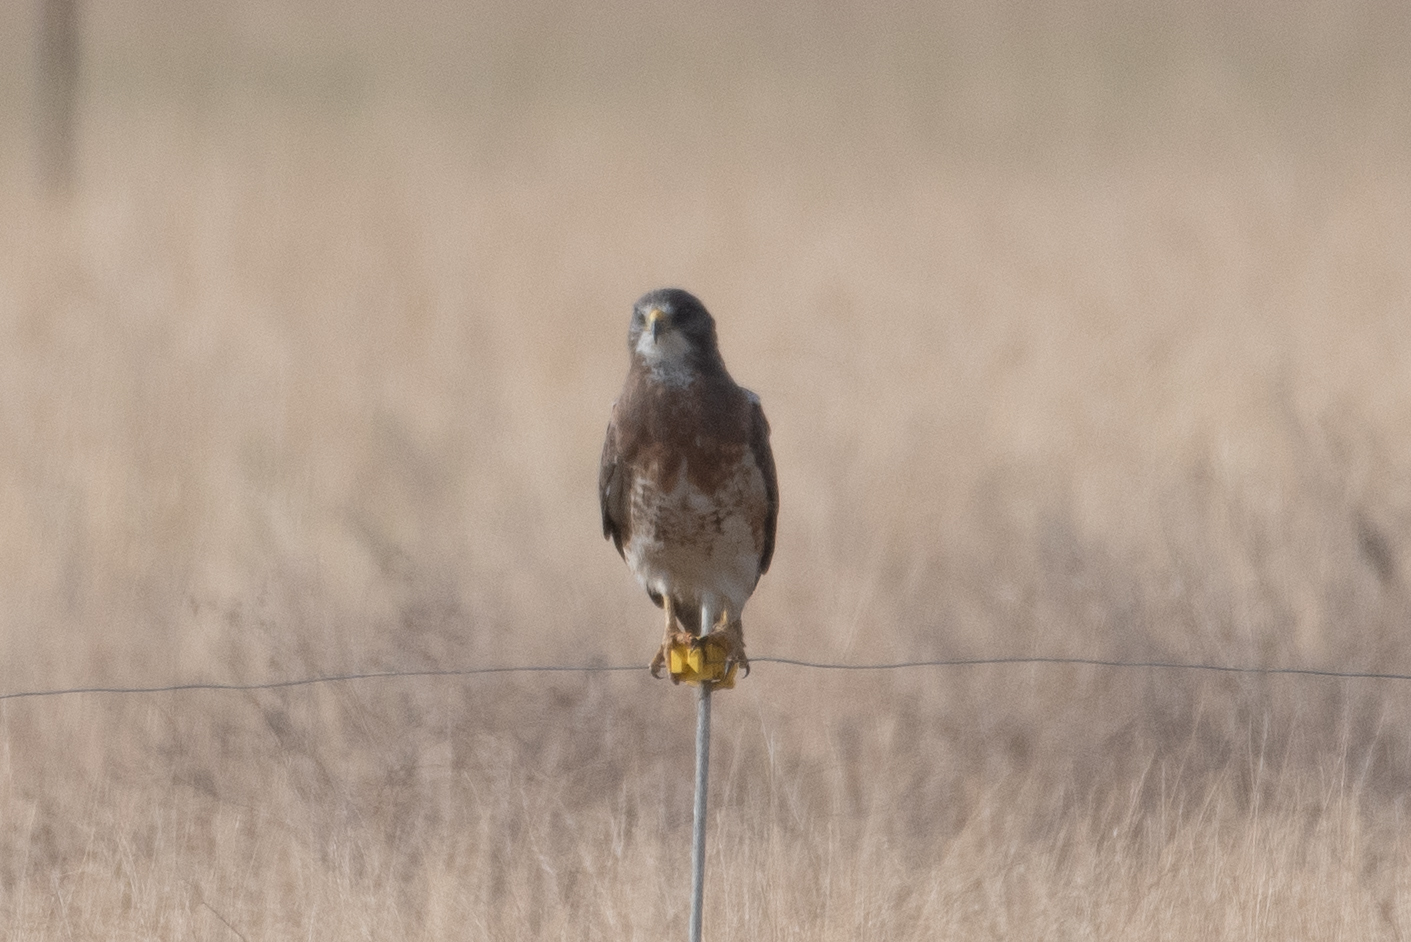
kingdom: Animalia
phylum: Chordata
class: Aves
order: Accipitriformes
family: Accipitridae
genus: Buteo
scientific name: Buteo swainsoni
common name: Swainson's hawk
